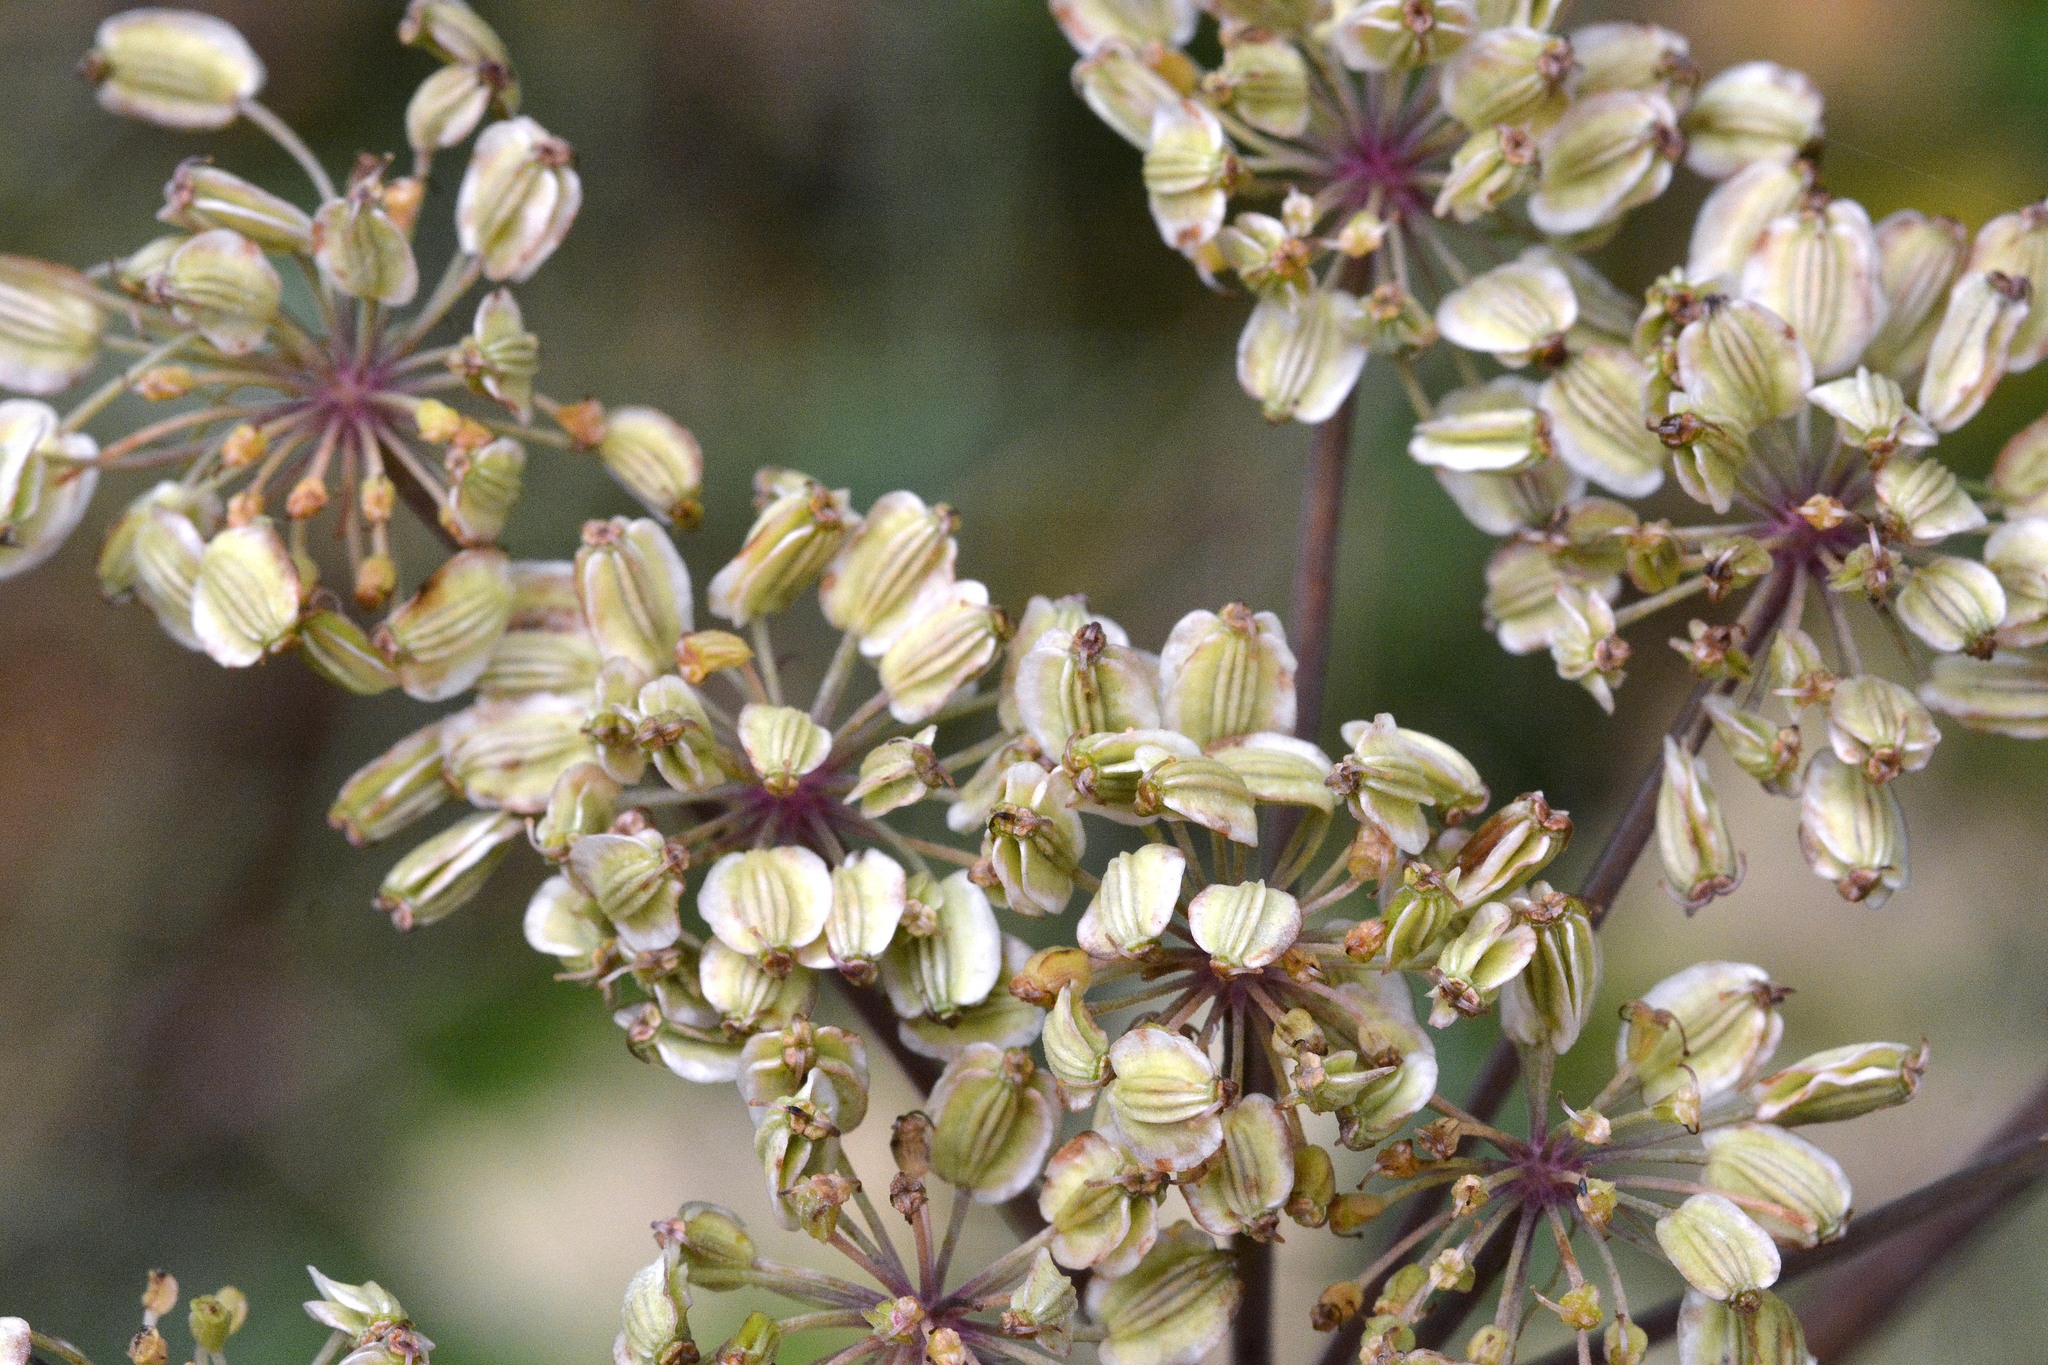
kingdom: Plantae
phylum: Tracheophyta
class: Magnoliopsida
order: Apiales
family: Apiaceae
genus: Angelica
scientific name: Angelica sylvestris
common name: Wild angelica
